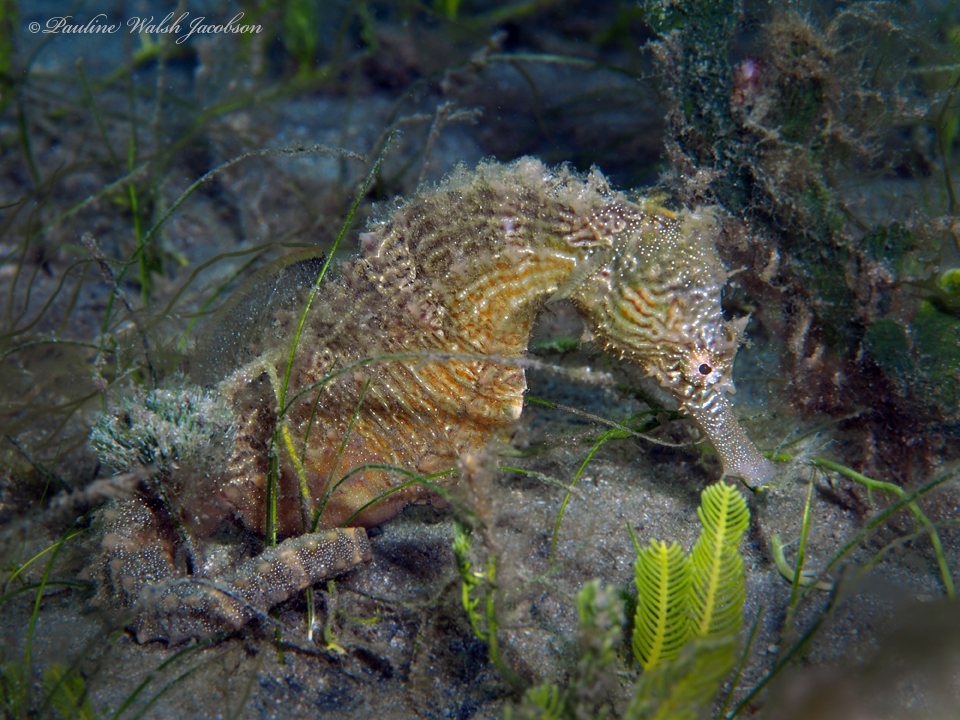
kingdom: Animalia
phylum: Chordata
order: Syngnathiformes
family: Syngnathidae
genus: Hippocampus
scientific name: Hippocampus erectus
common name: Lined seahorse
